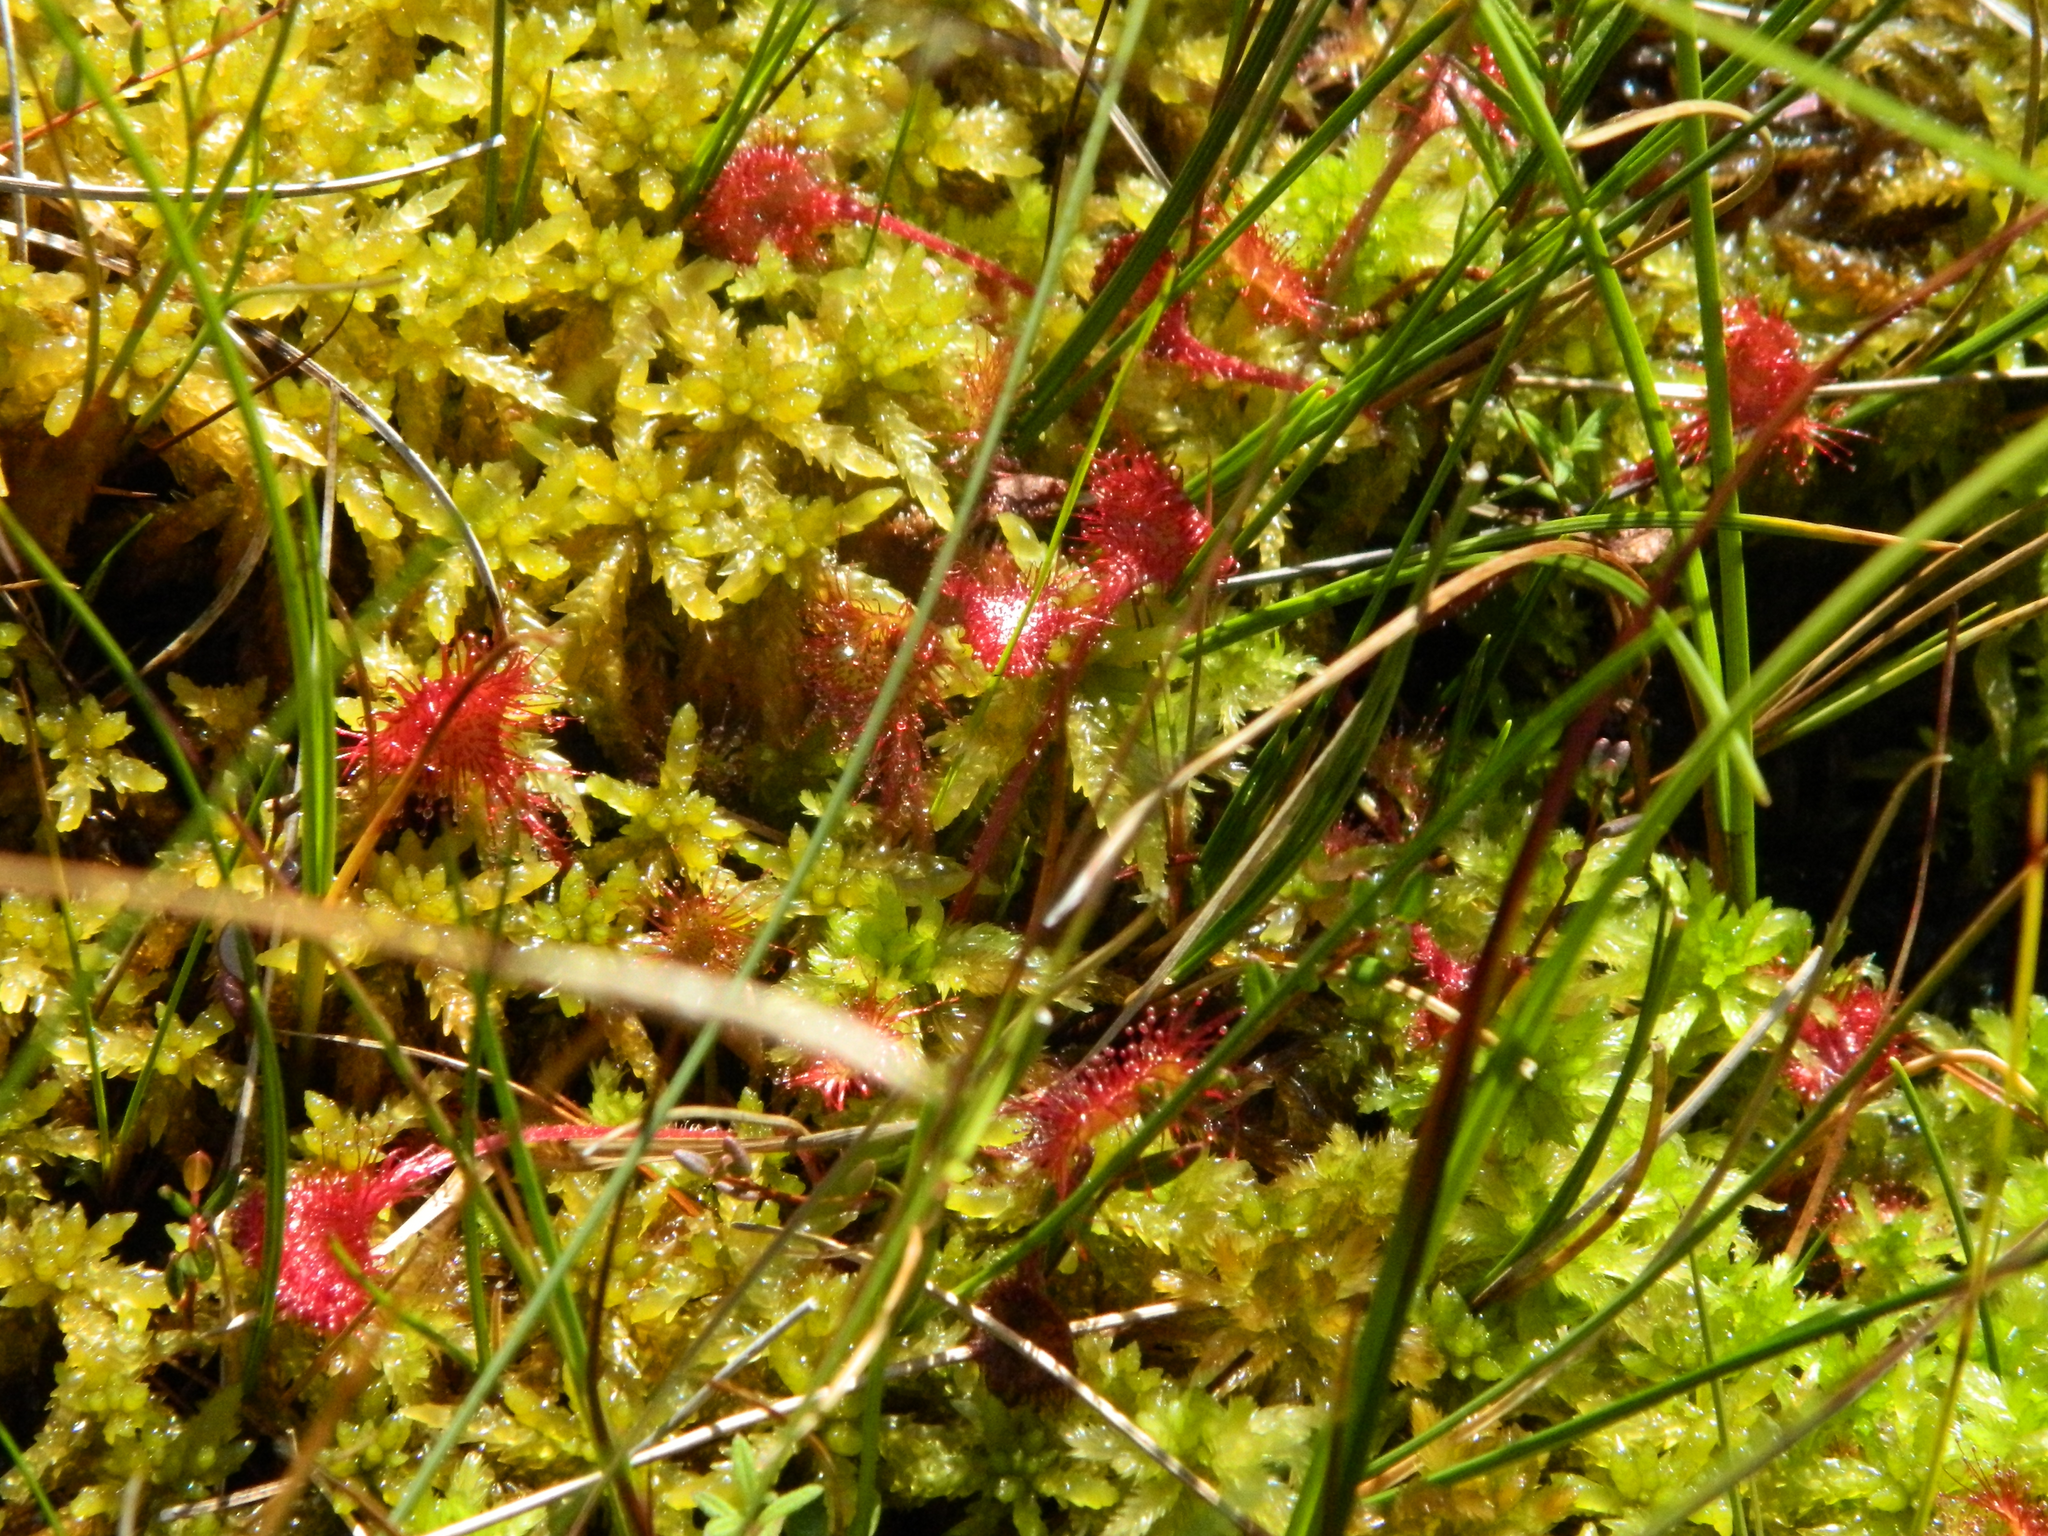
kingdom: Plantae
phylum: Tracheophyta
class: Magnoliopsida
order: Caryophyllales
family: Droseraceae
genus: Drosera
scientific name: Drosera rotundifolia
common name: Round-leaved sundew
